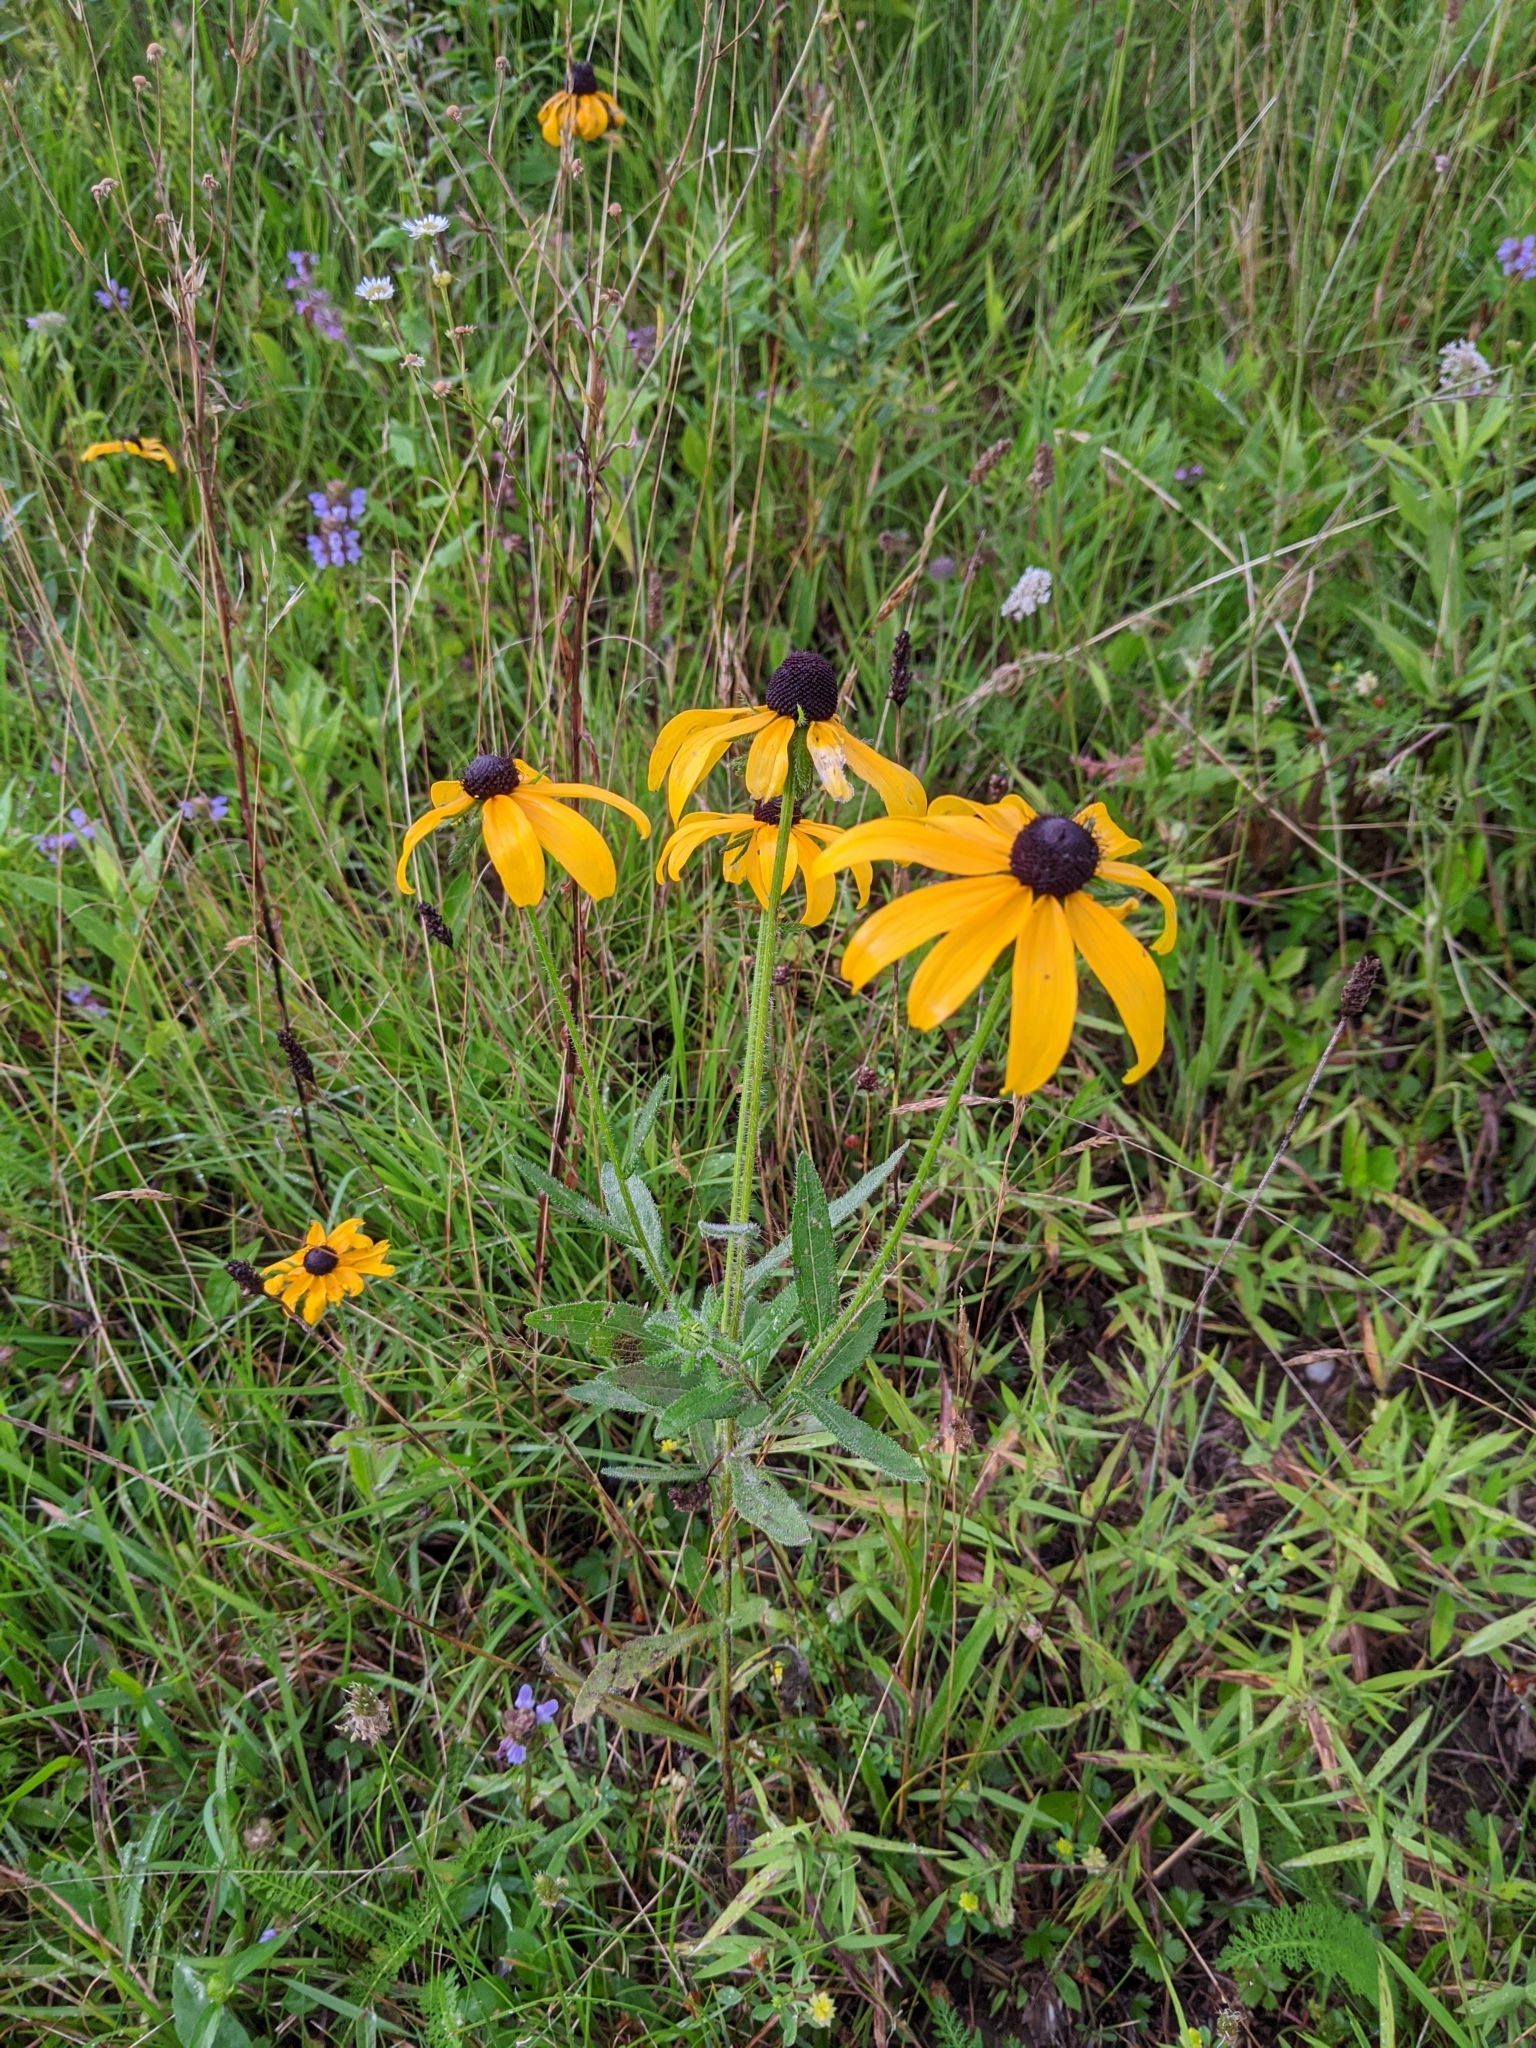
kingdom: Plantae
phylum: Tracheophyta
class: Magnoliopsida
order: Asterales
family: Asteraceae
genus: Rudbeckia
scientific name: Rudbeckia hirta
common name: Black-eyed-susan
